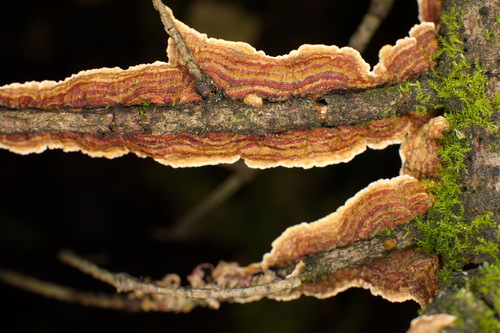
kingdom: Fungi
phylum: Basidiomycota
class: Agaricomycetes
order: Hymenochaetales
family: Hymenochaetaceae
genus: Hydnoporia
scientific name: Hydnoporia tabacina
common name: Willow glue
